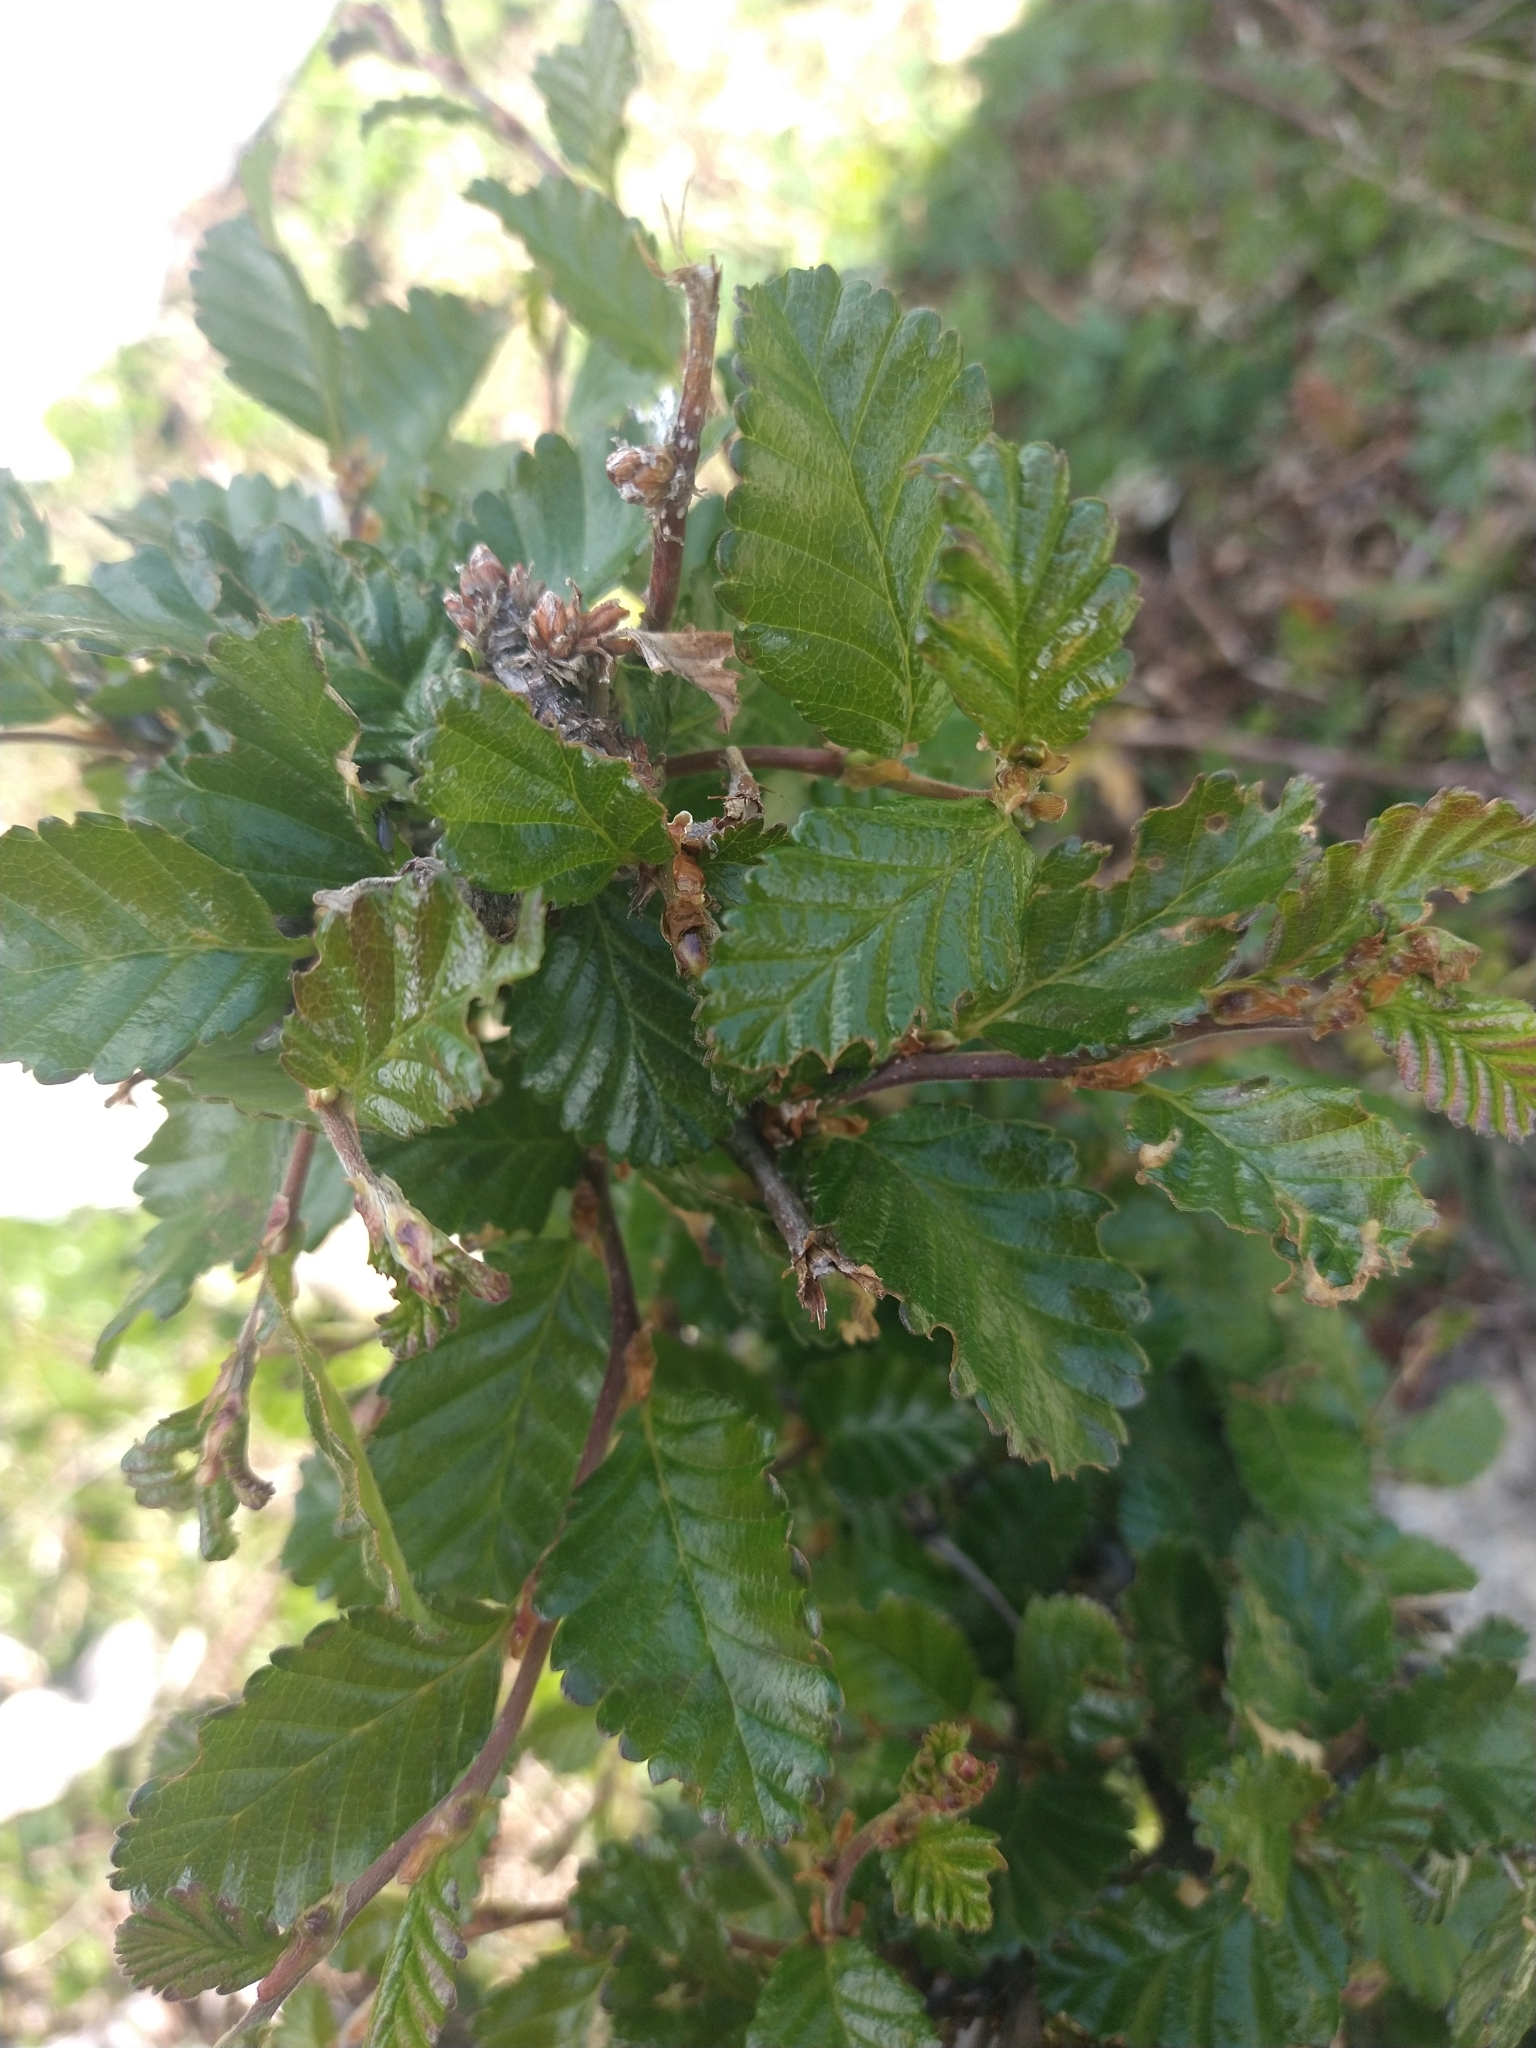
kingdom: Plantae
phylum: Tracheophyta
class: Magnoliopsida
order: Fagales
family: Nothofagaceae
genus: Nothofagus
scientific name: Nothofagus pumilio
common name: Lenga beech
